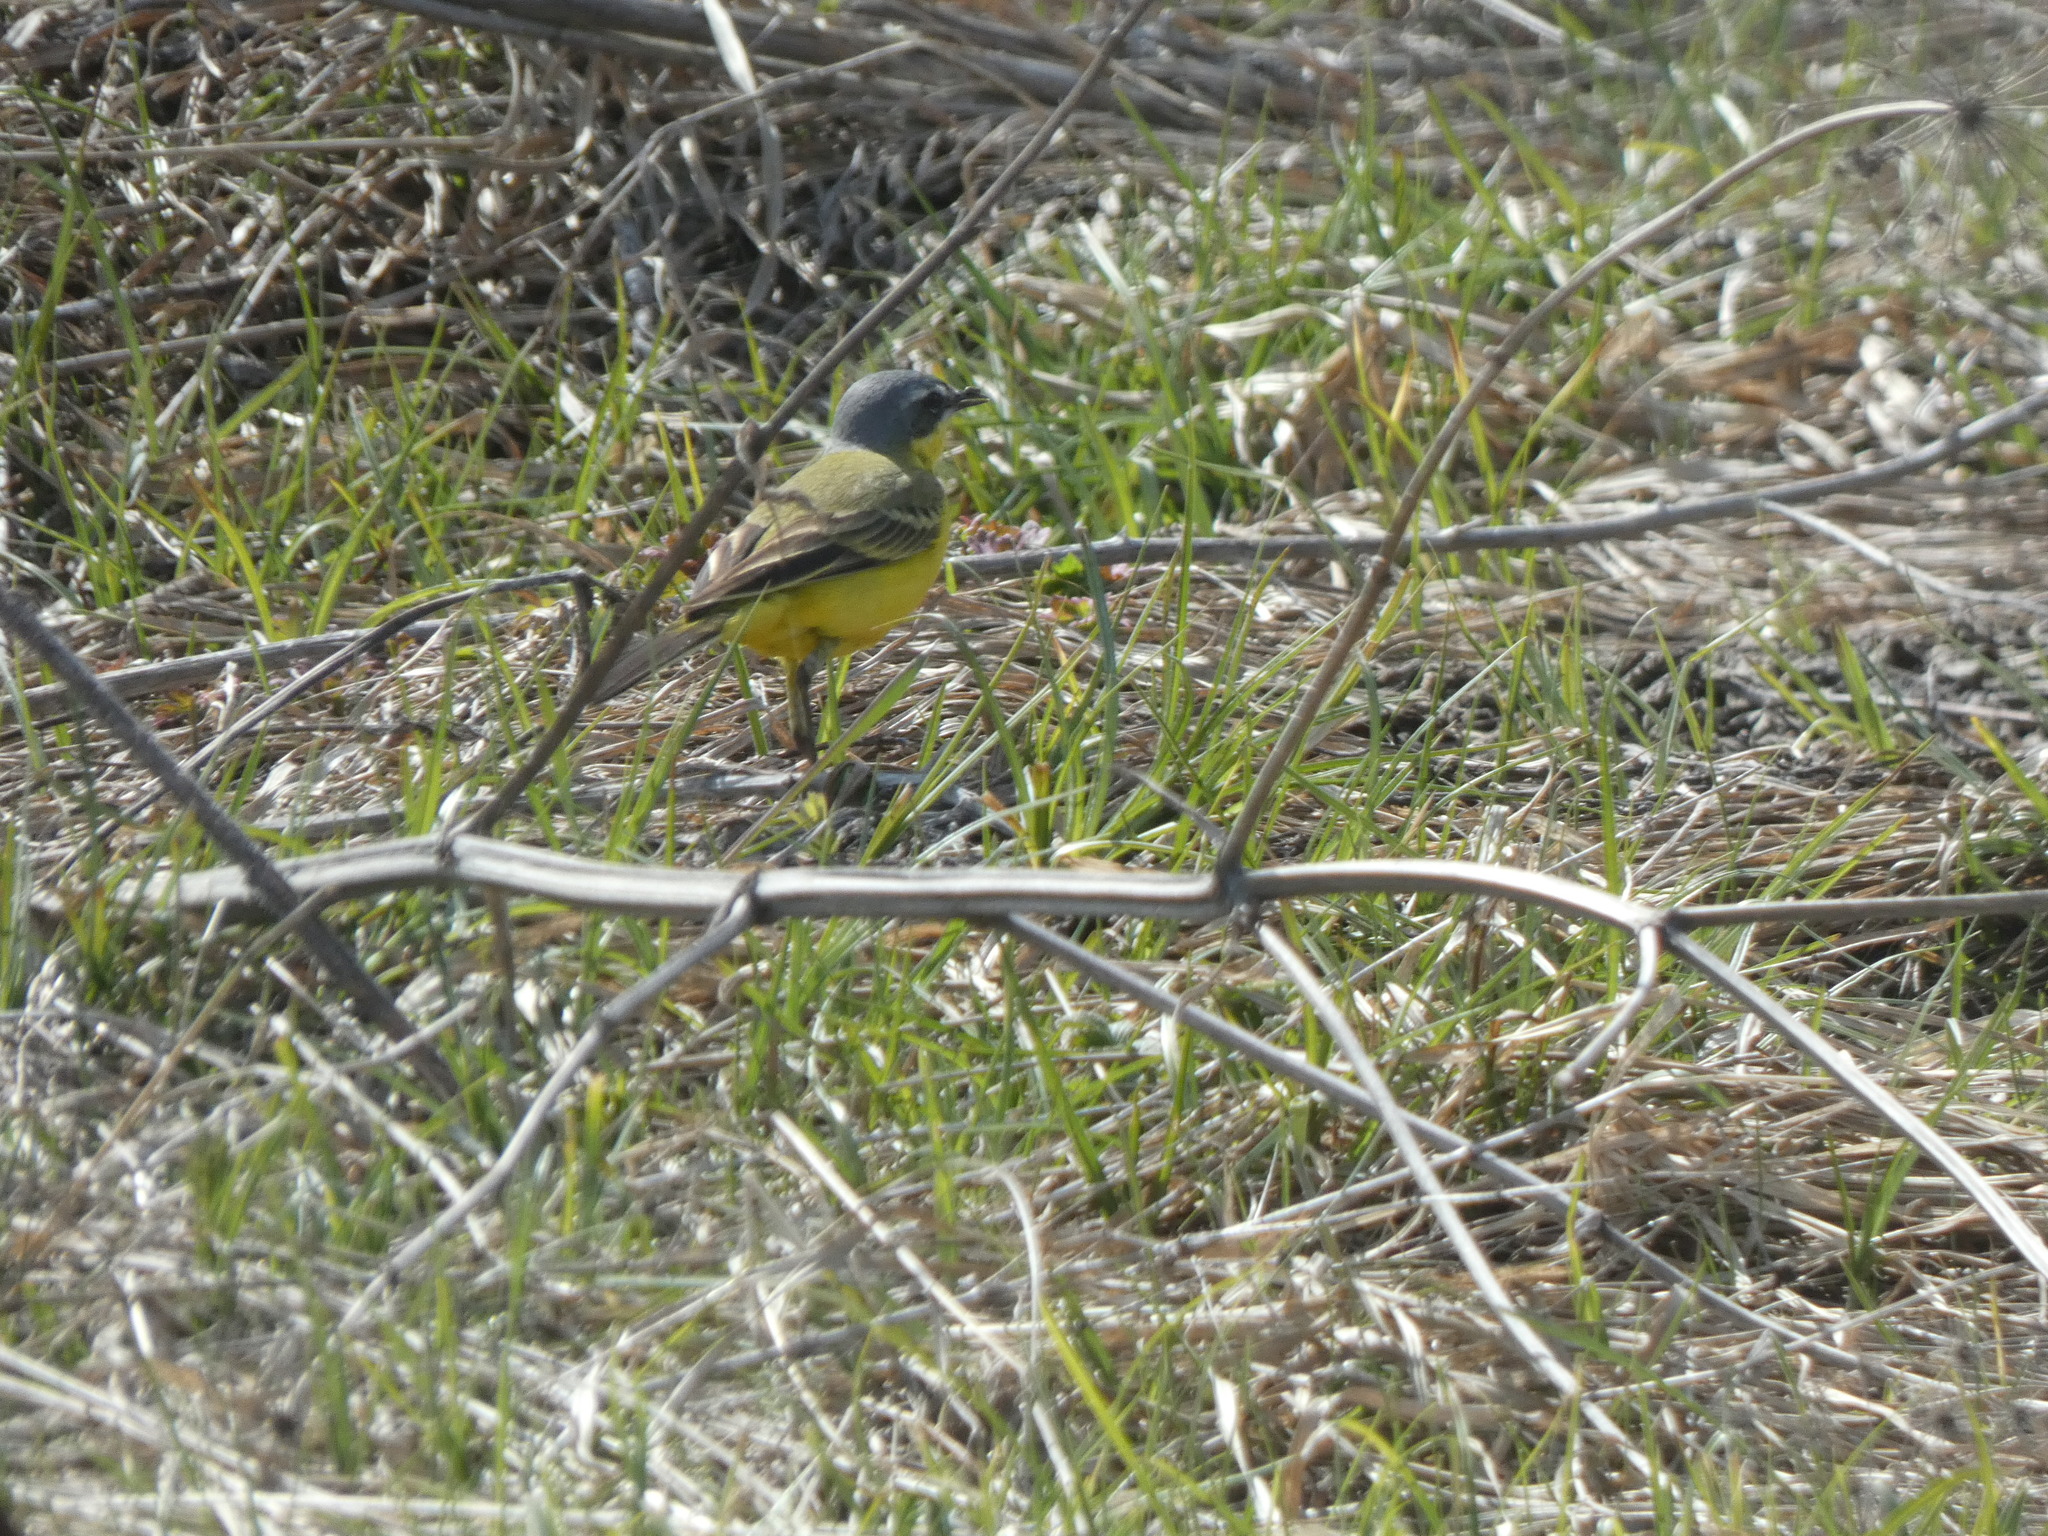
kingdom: Animalia
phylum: Chordata
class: Aves
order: Passeriformes
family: Motacillidae
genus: Motacilla
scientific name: Motacilla flava
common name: Western yellow wagtail
